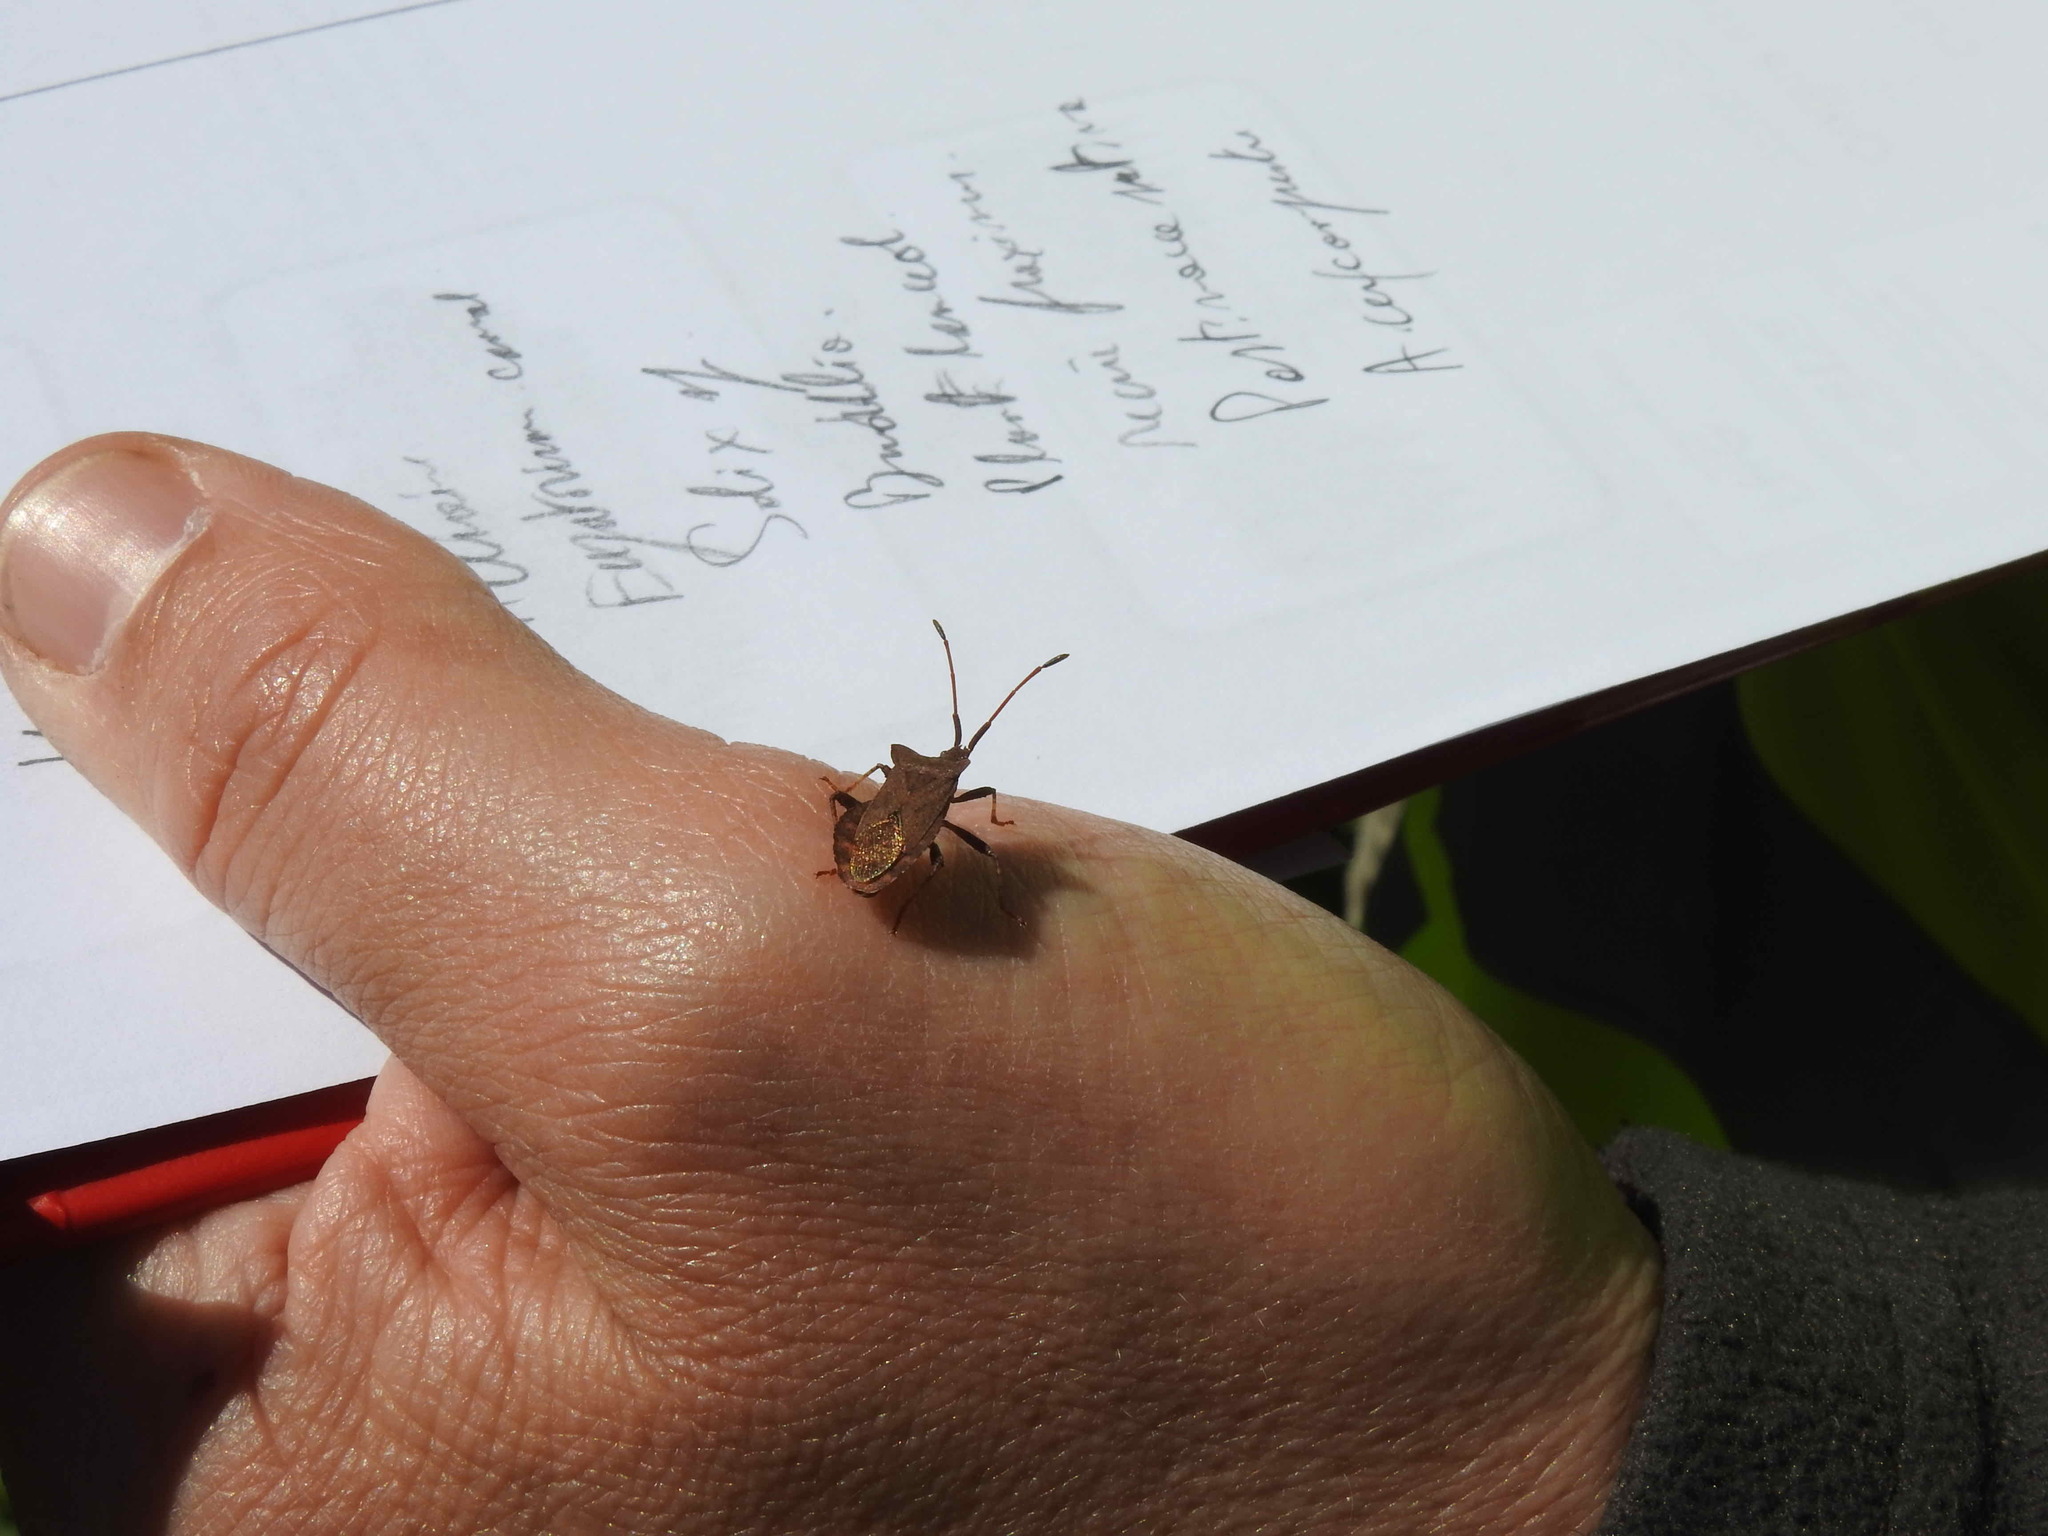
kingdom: Animalia
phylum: Arthropoda
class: Insecta
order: Hemiptera
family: Coreidae
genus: Coreus
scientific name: Coreus marginatus
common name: Dock bug
